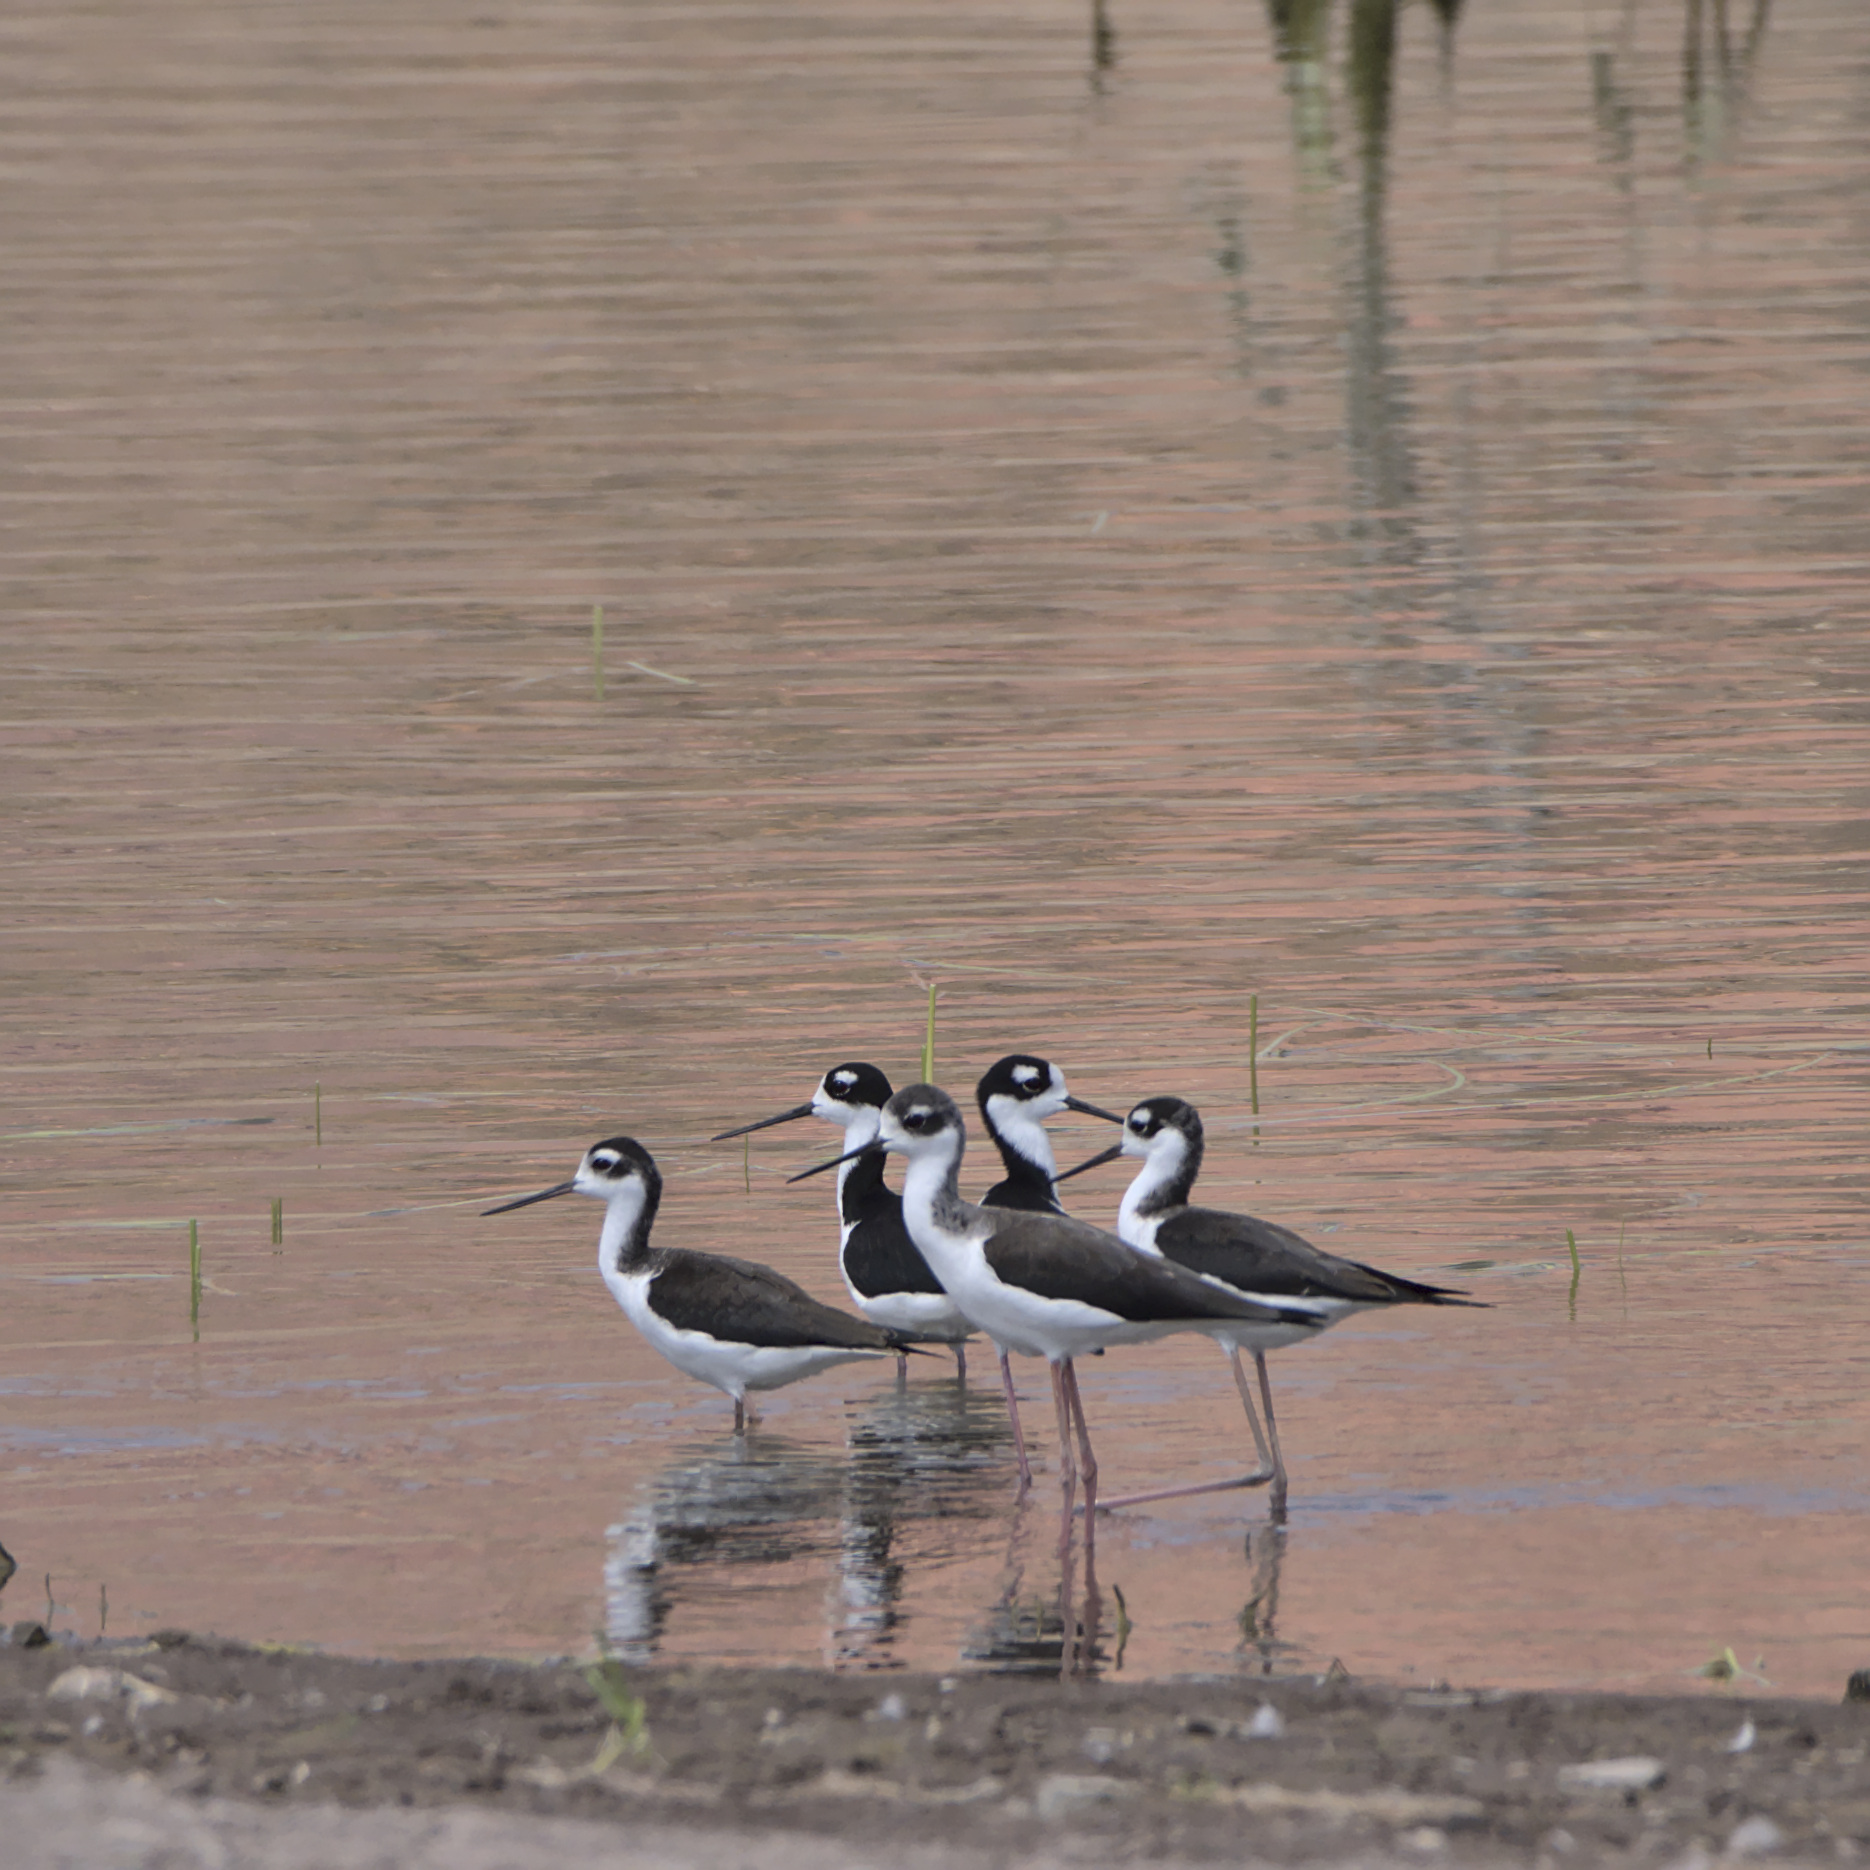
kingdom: Animalia
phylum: Chordata
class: Aves
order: Charadriiformes
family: Recurvirostridae
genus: Himantopus
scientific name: Himantopus mexicanus
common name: Black-necked stilt
